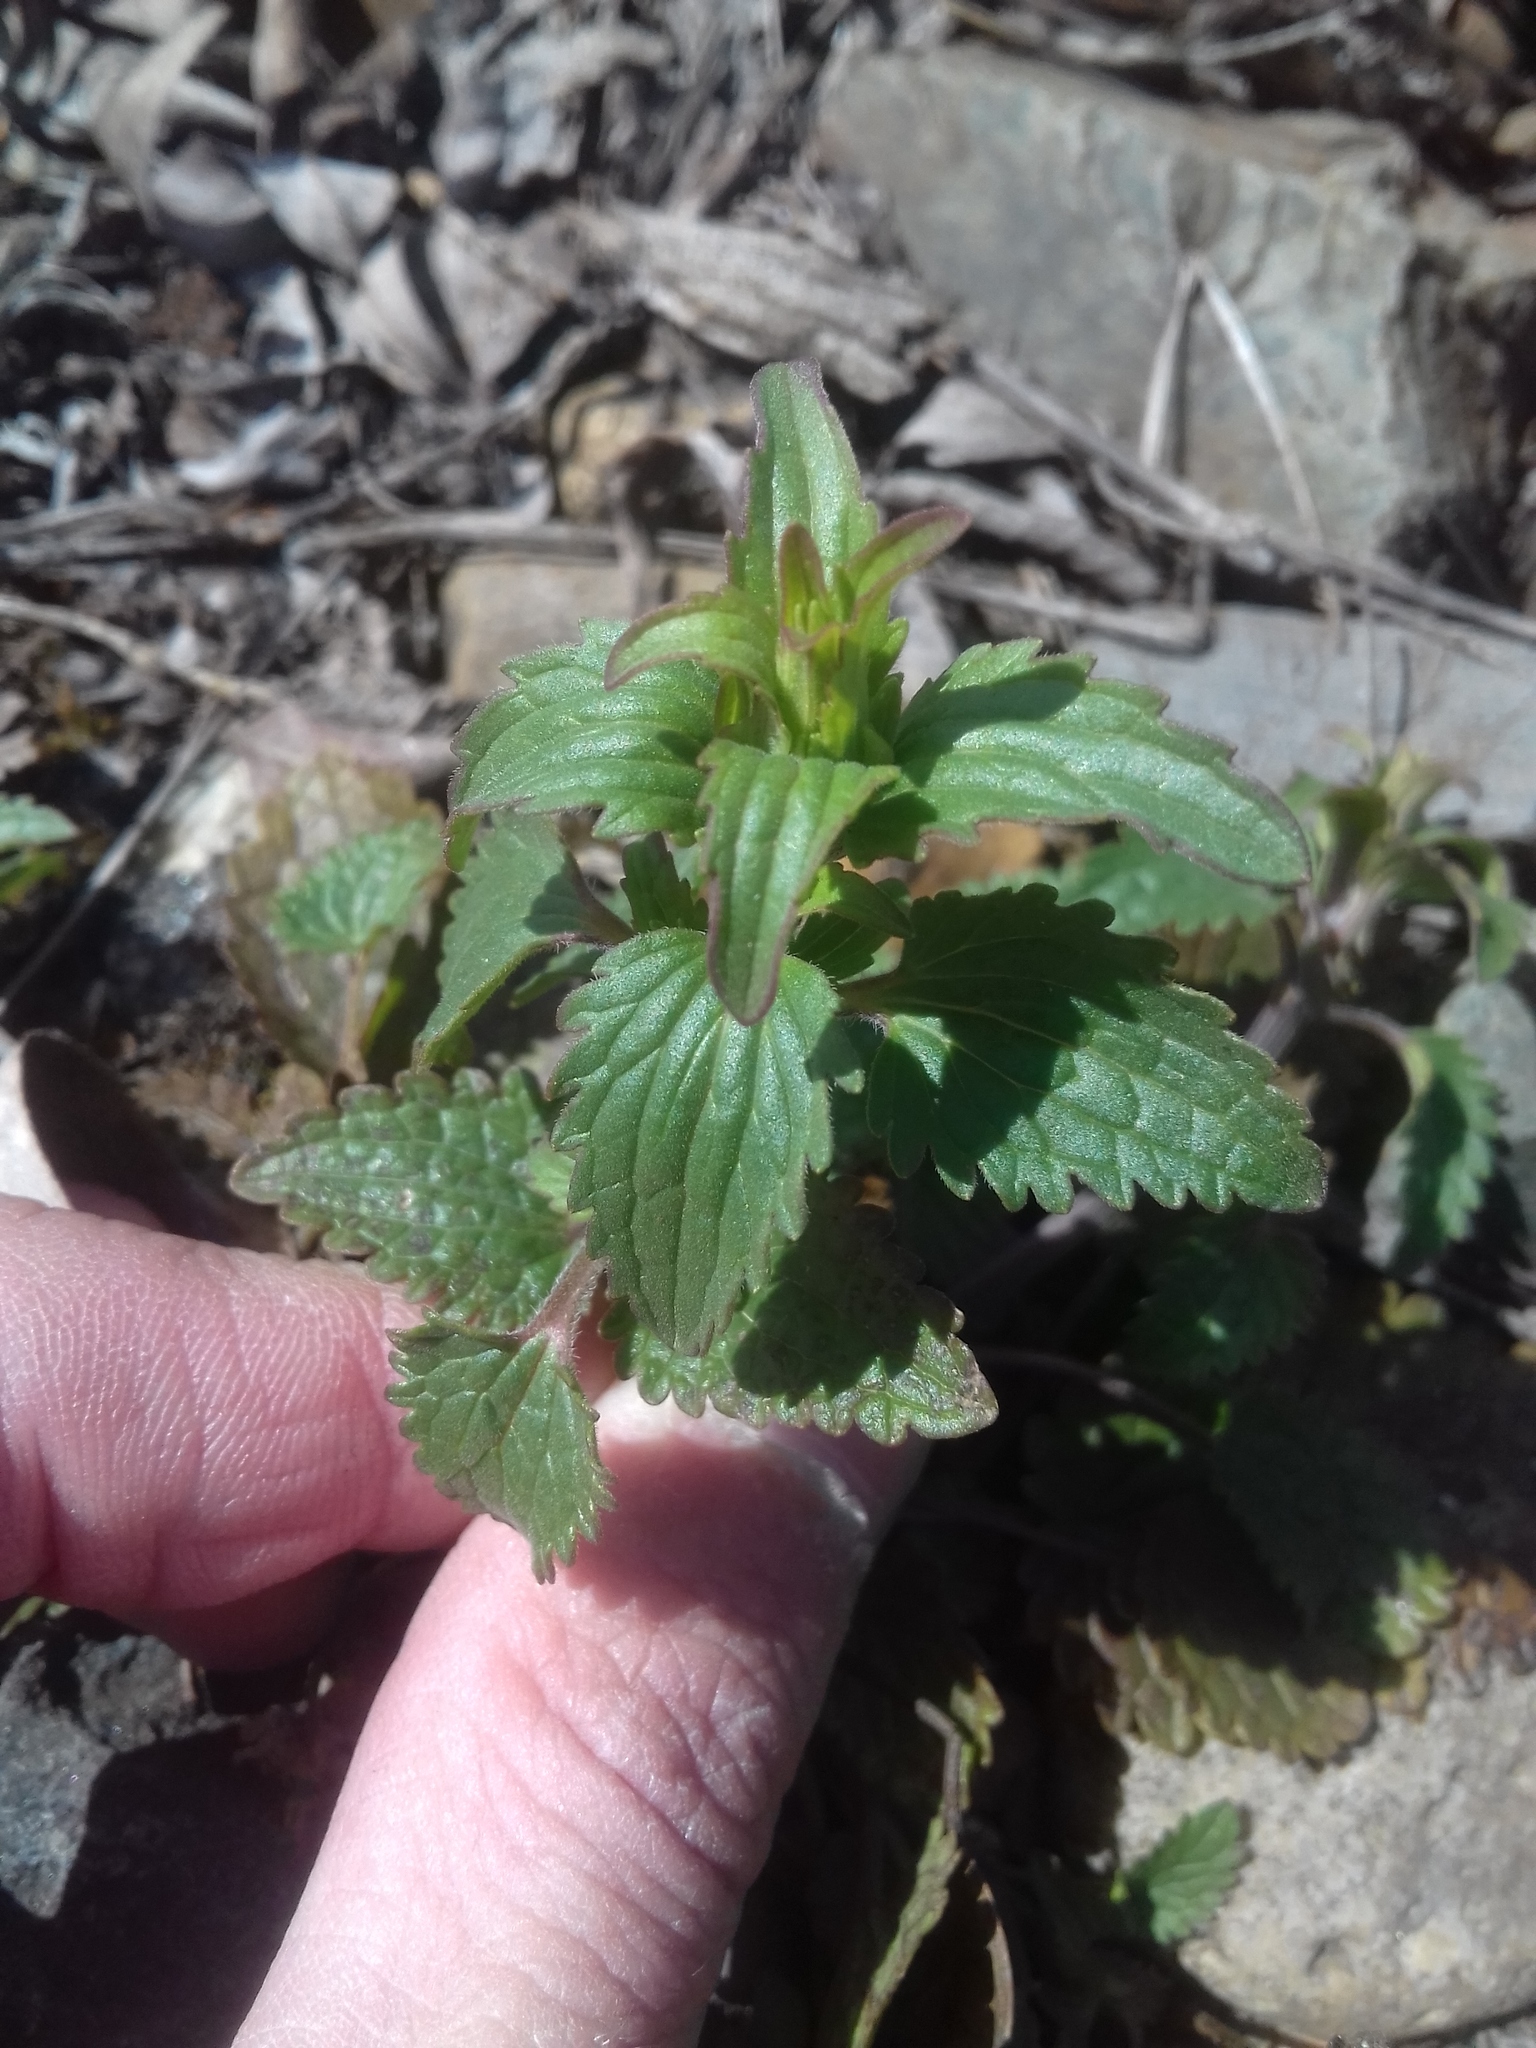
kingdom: Plantae
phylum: Tracheophyta
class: Magnoliopsida
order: Lamiales
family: Lamiaceae
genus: Dracocephalum
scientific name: Dracocephalum thymiflorum
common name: Thymeleaf dragonhead
